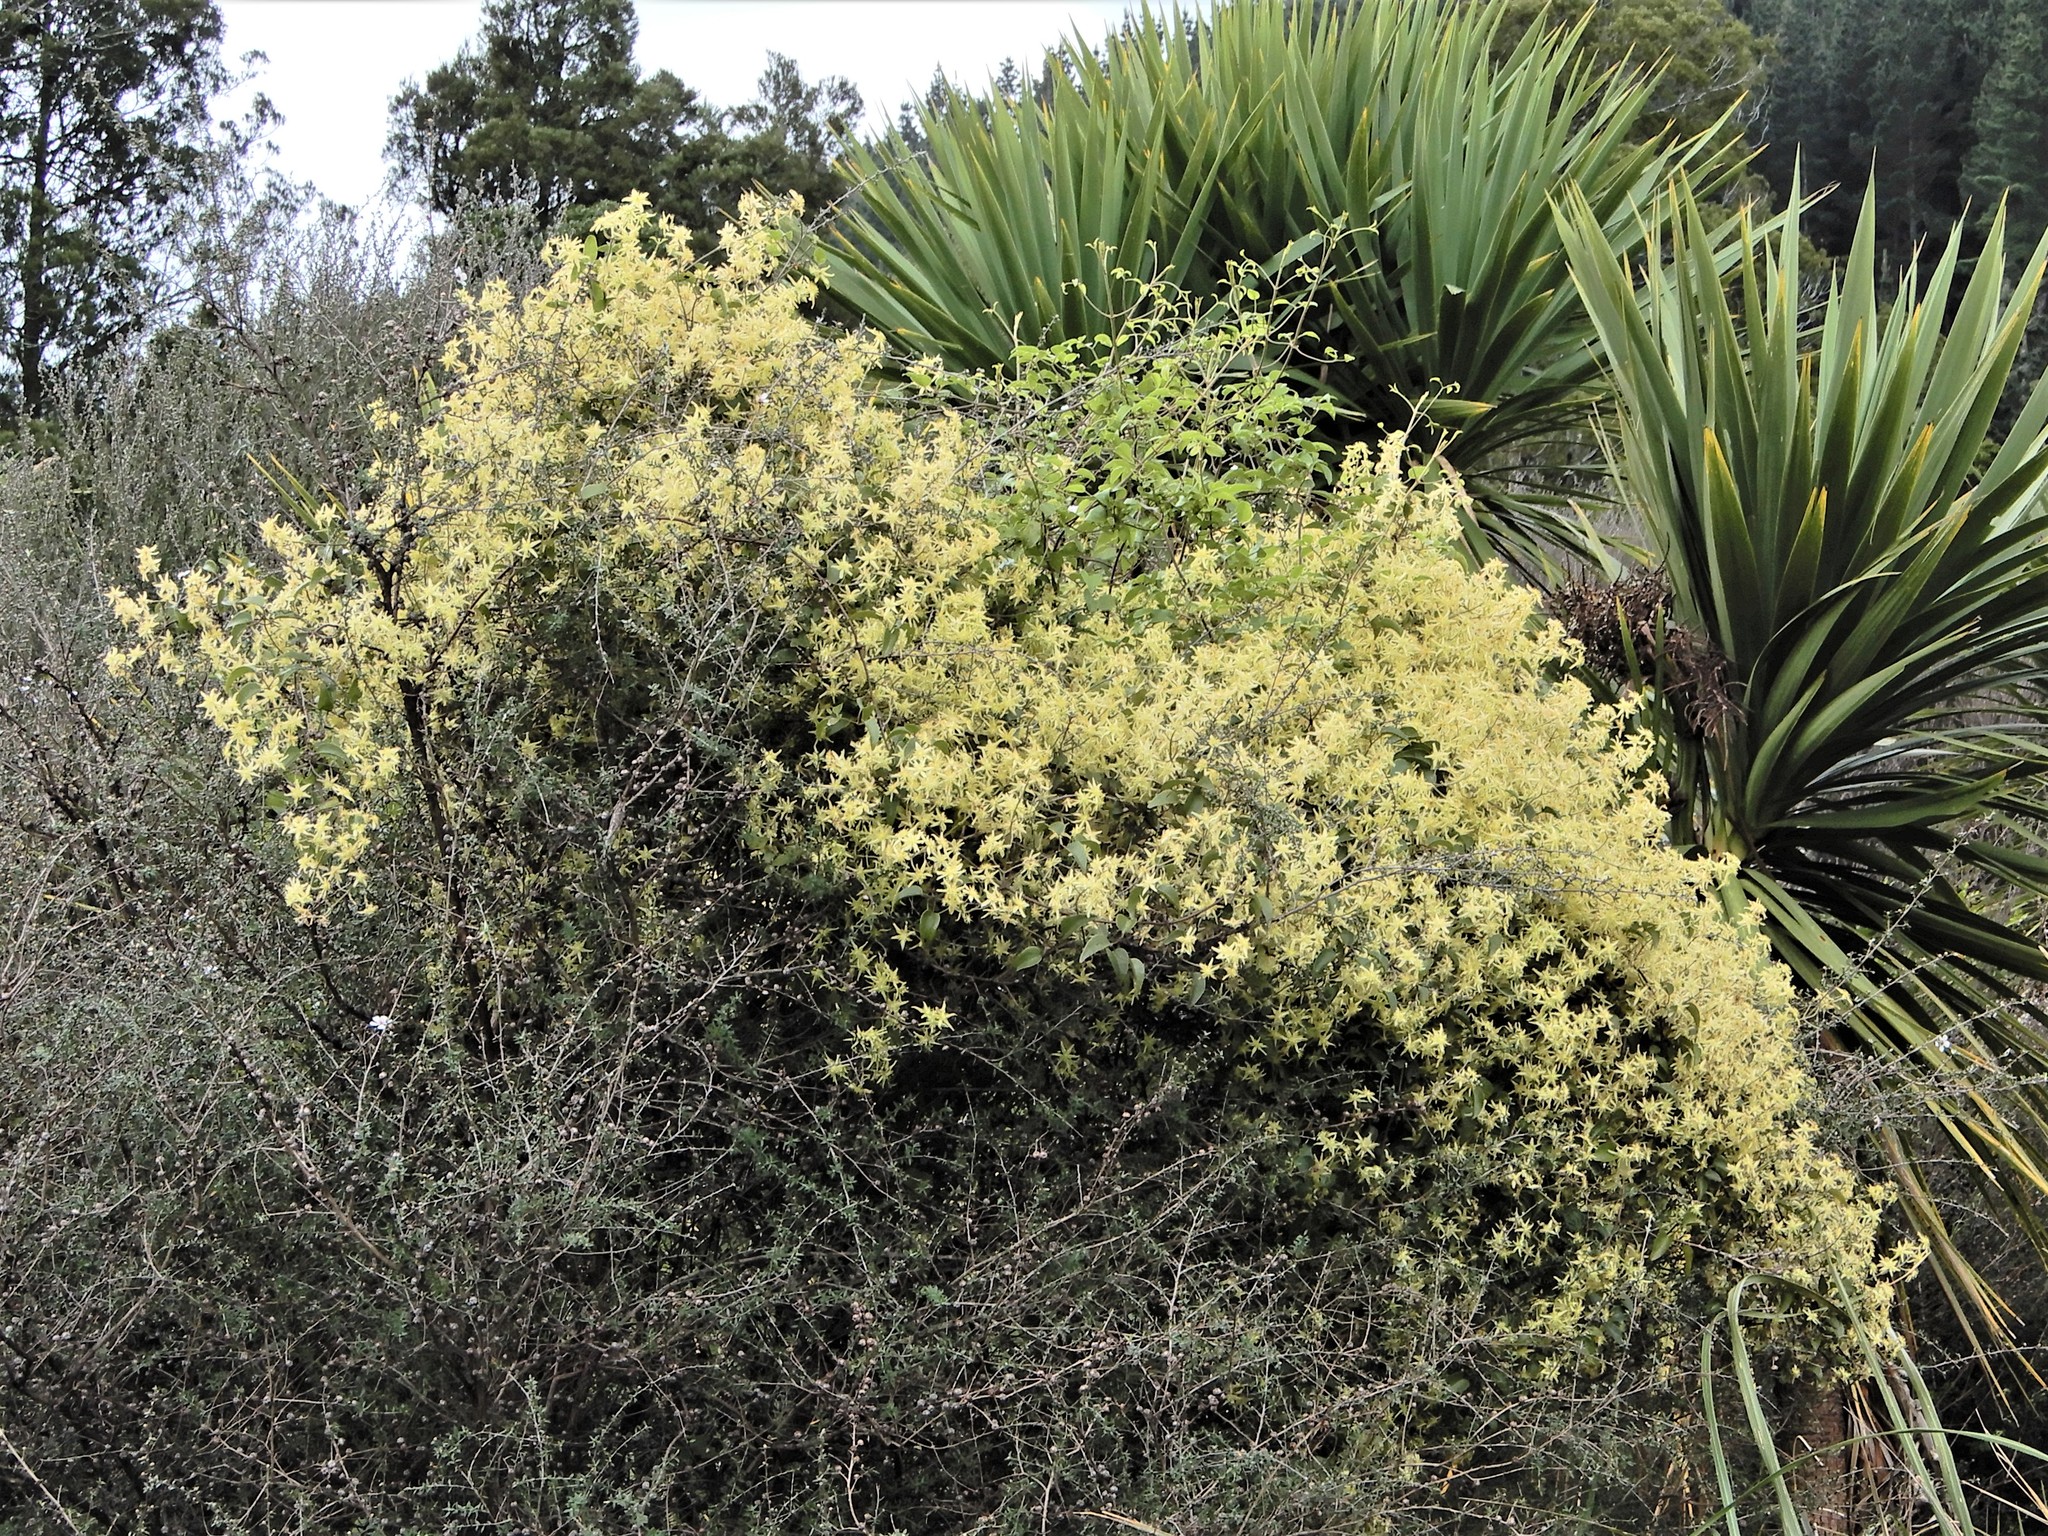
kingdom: Plantae
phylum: Tracheophyta
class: Magnoliopsida
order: Ranunculales
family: Ranunculaceae
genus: Clematis
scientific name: Clematis foetida
